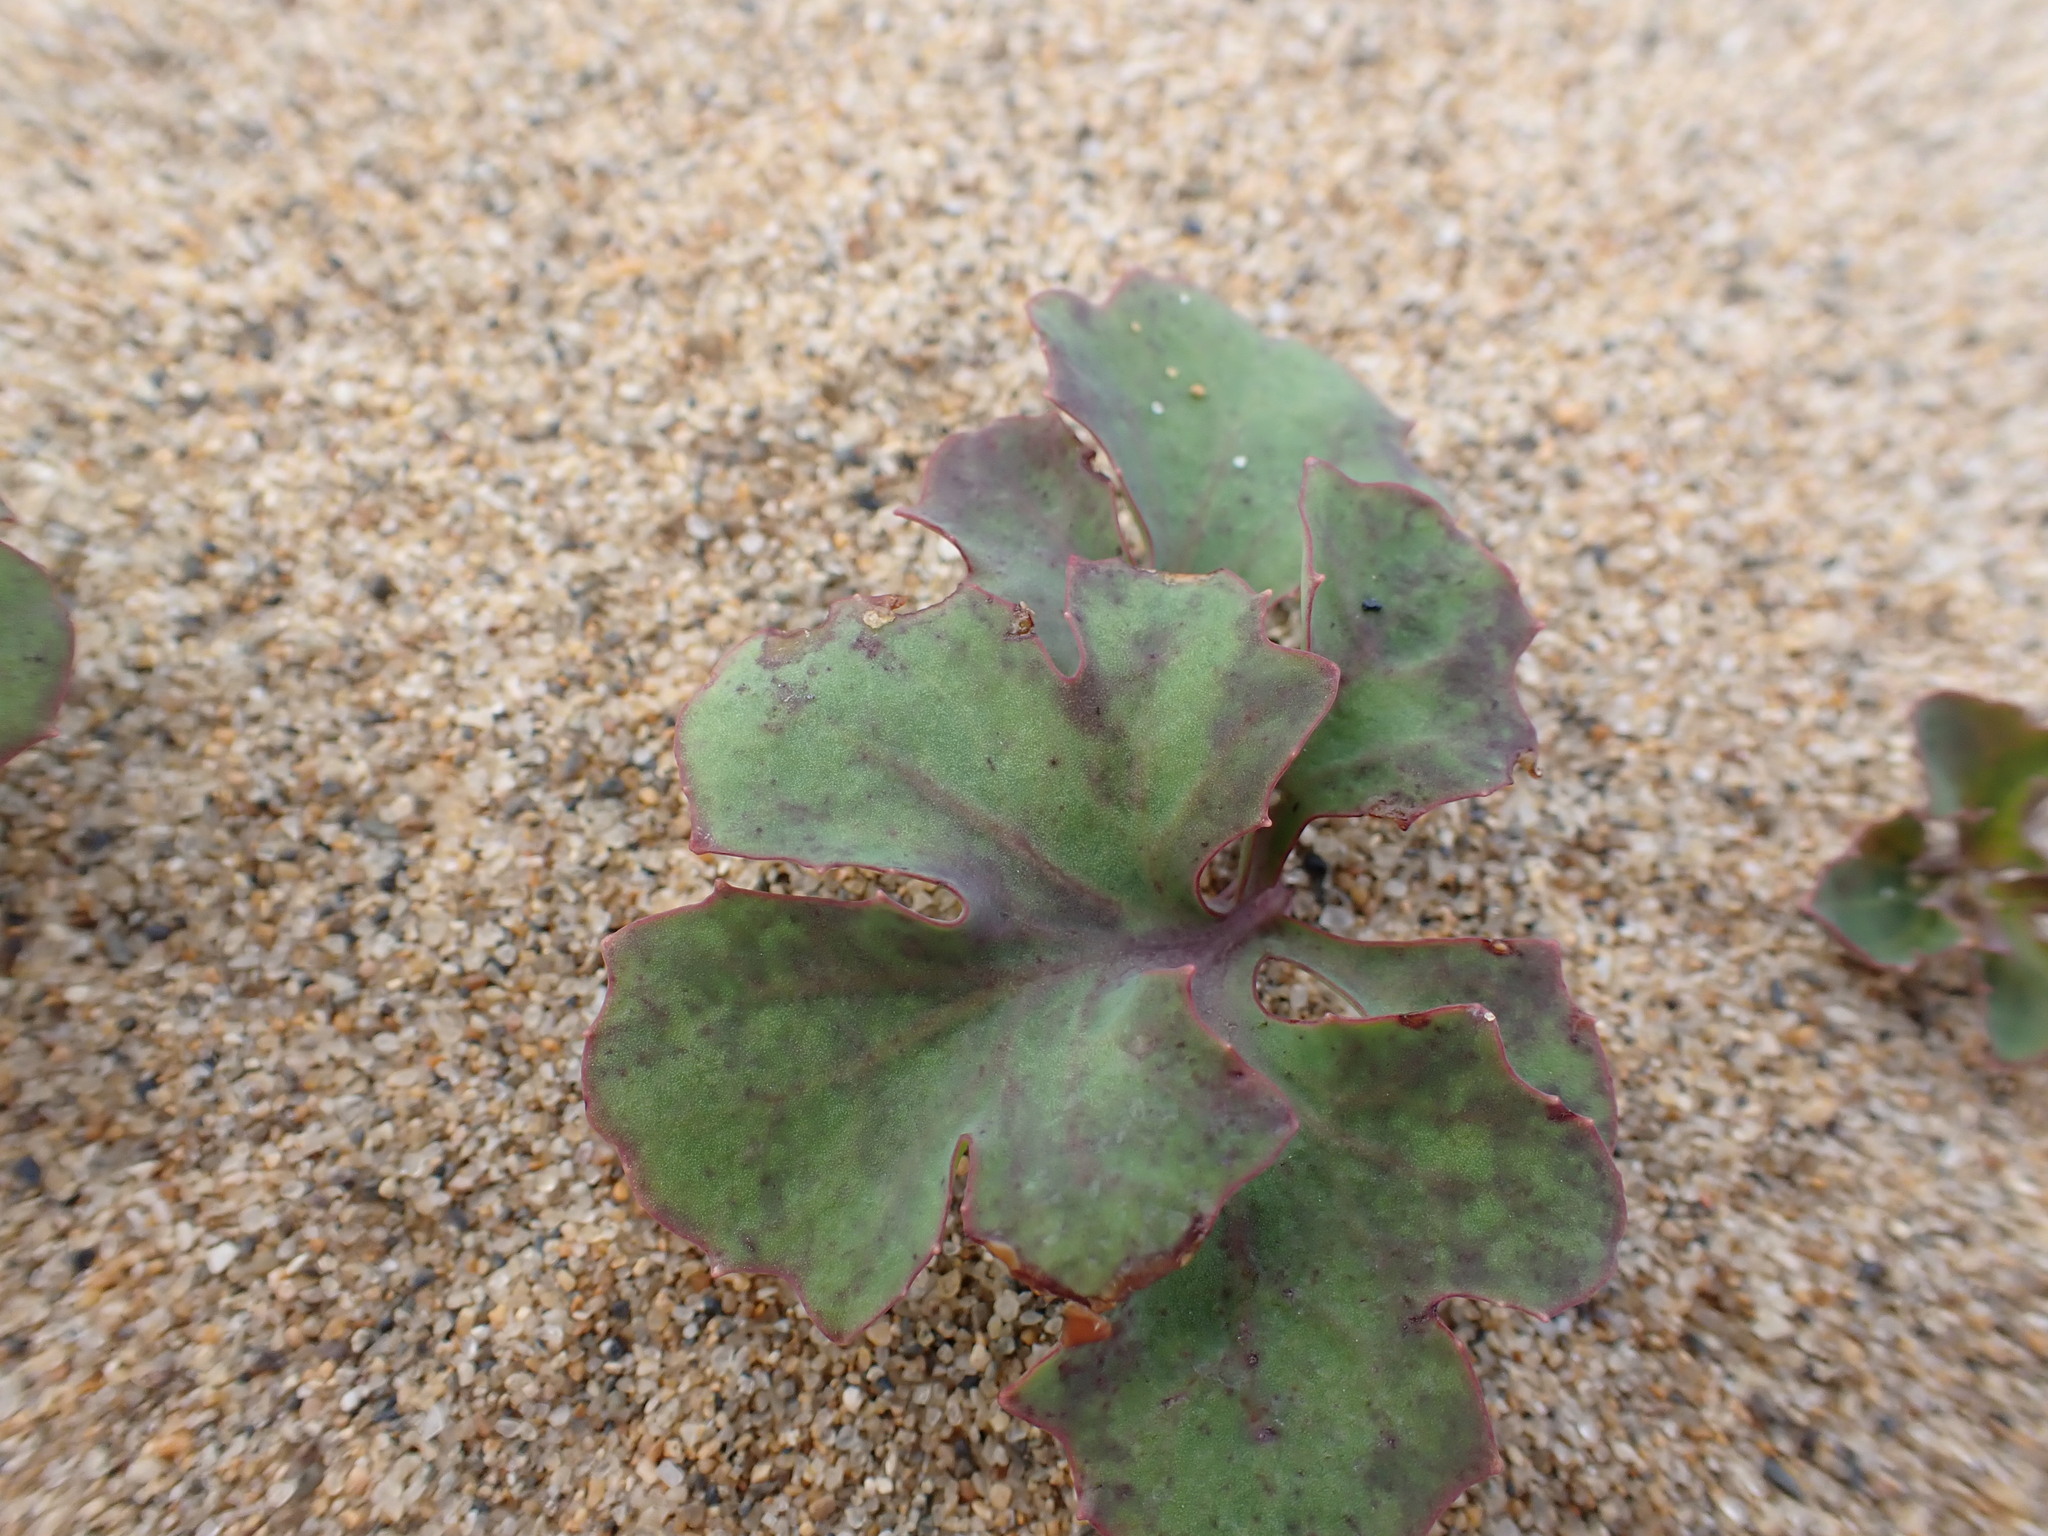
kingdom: Plantae
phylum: Tracheophyta
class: Magnoliopsida
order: Asterales
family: Asteraceae
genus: Ixeris
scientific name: Ixeris repens
